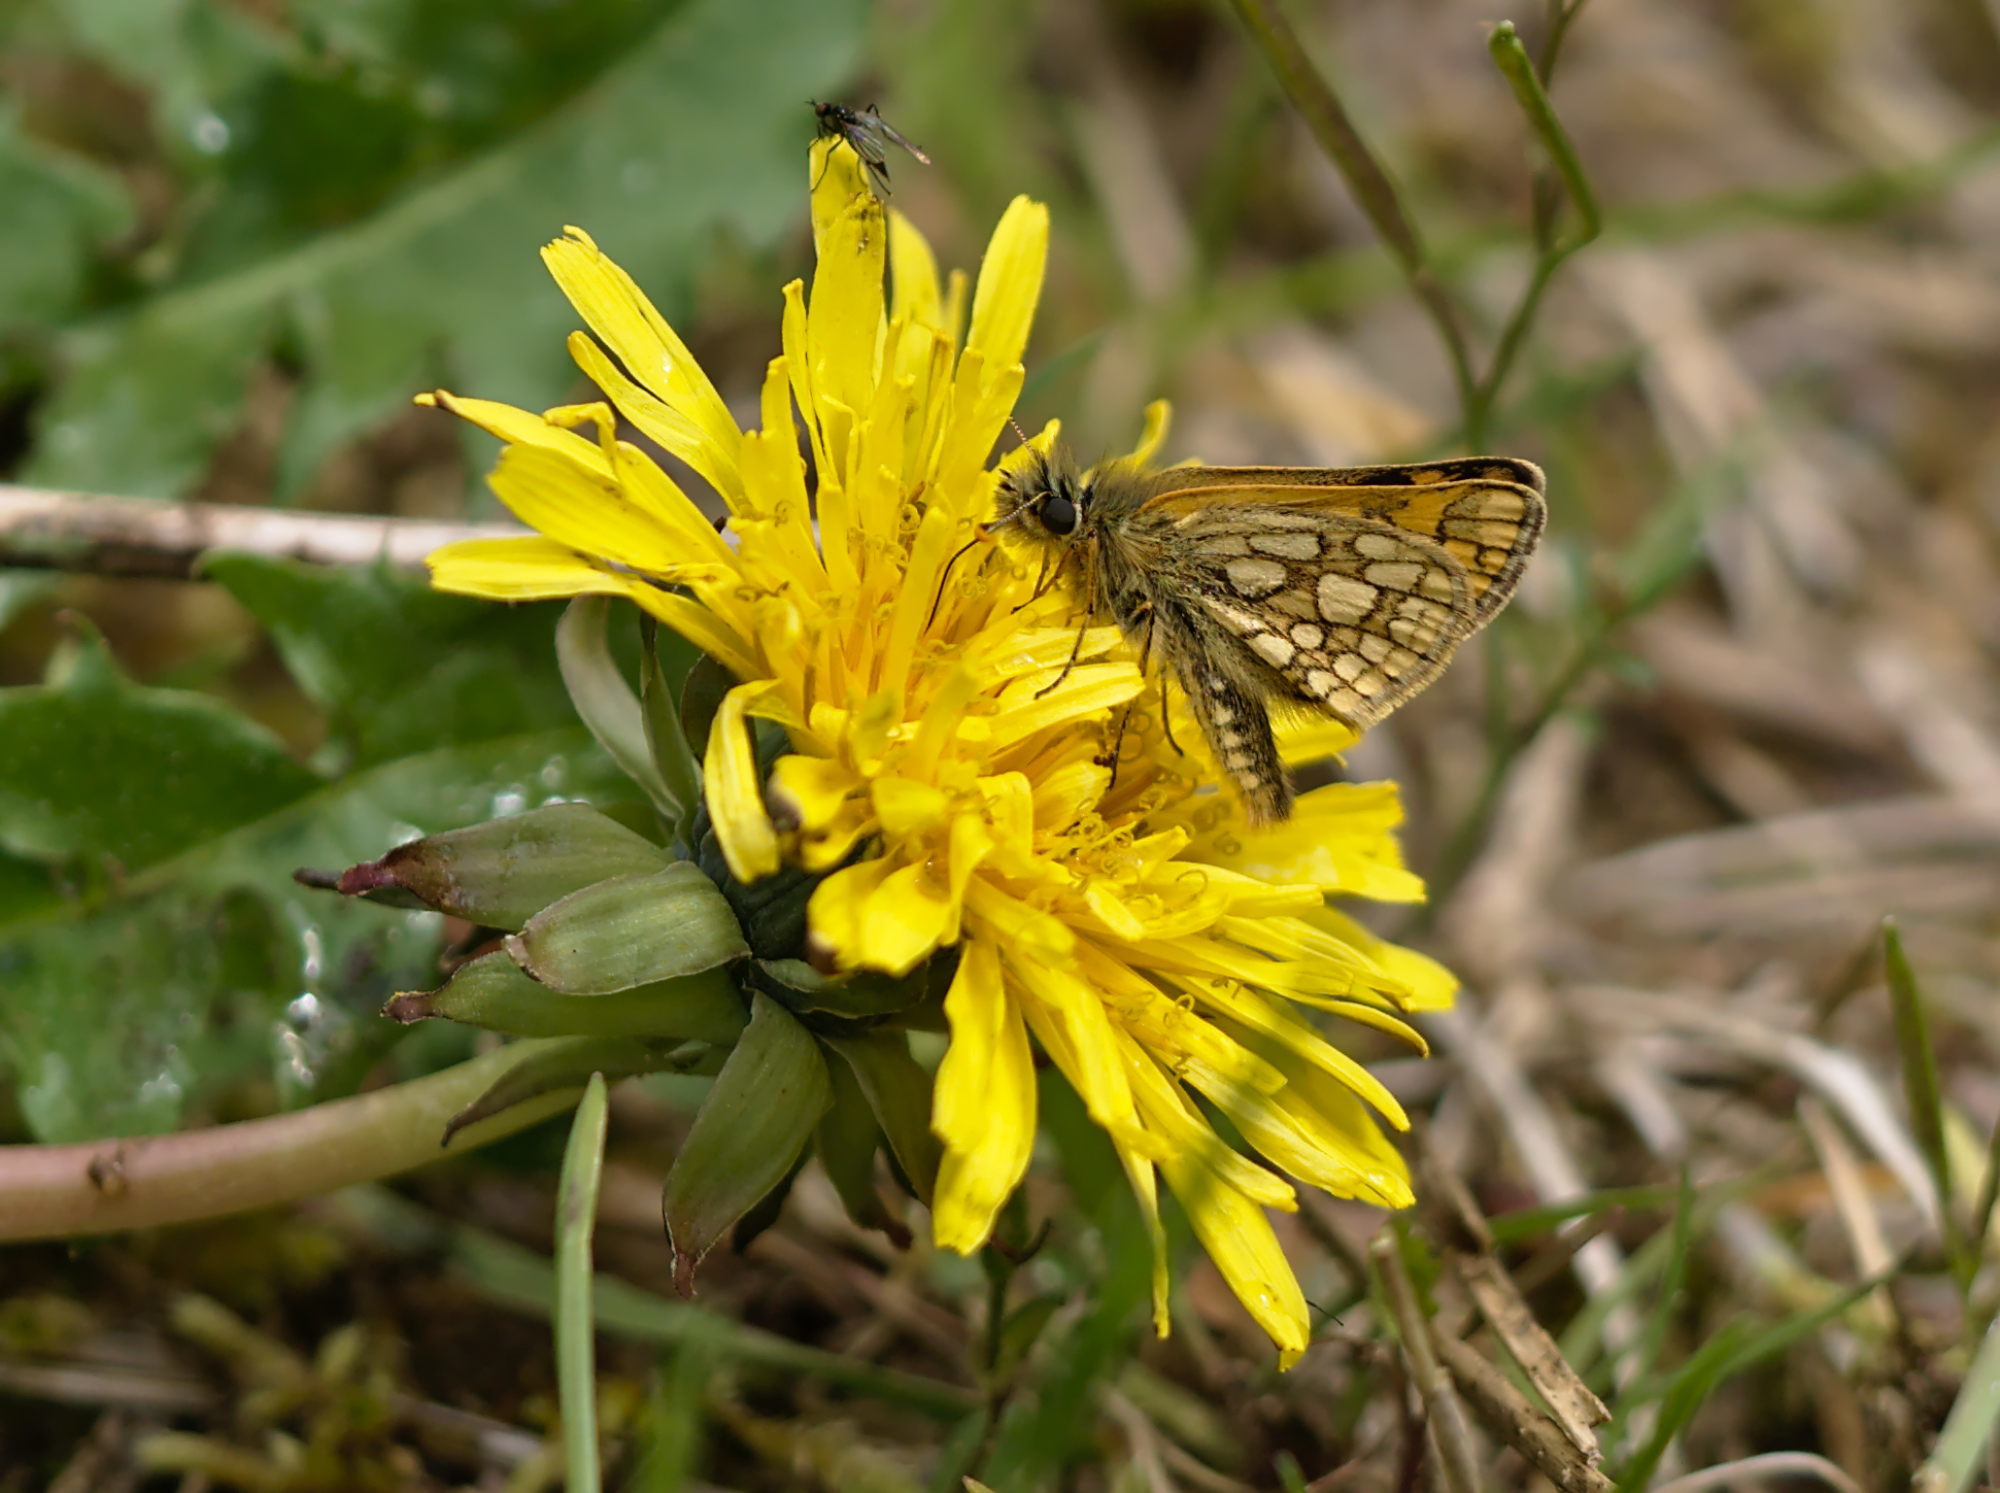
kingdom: Animalia
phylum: Arthropoda
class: Insecta
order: Lepidoptera
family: Hesperiidae
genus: Carterocephalus
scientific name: Carterocephalus palaemon
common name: Chequered skipper
